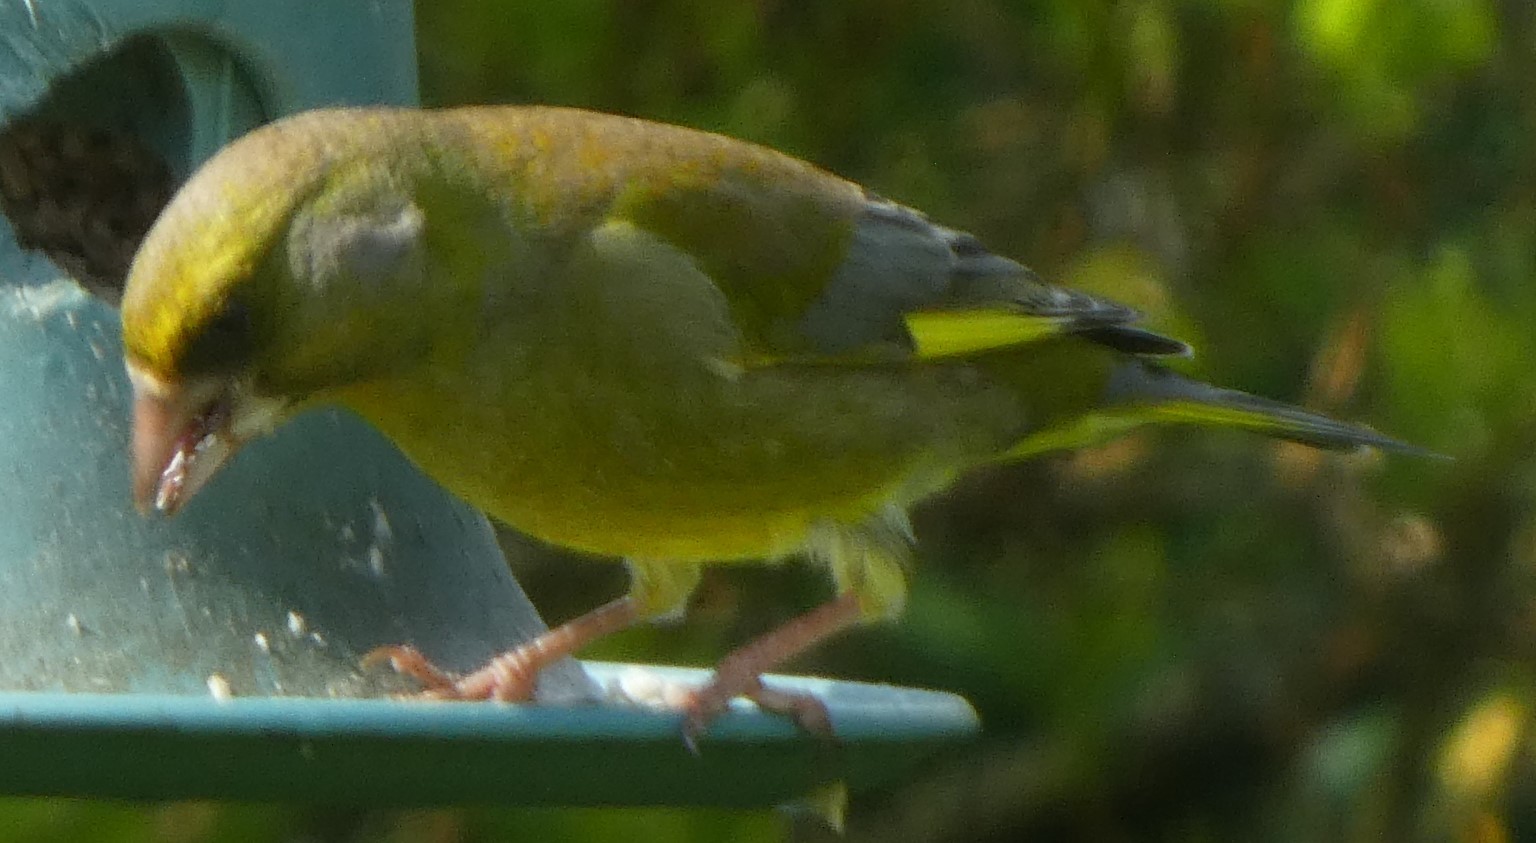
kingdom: Plantae
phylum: Tracheophyta
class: Liliopsida
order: Poales
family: Poaceae
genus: Chloris
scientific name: Chloris chloris
